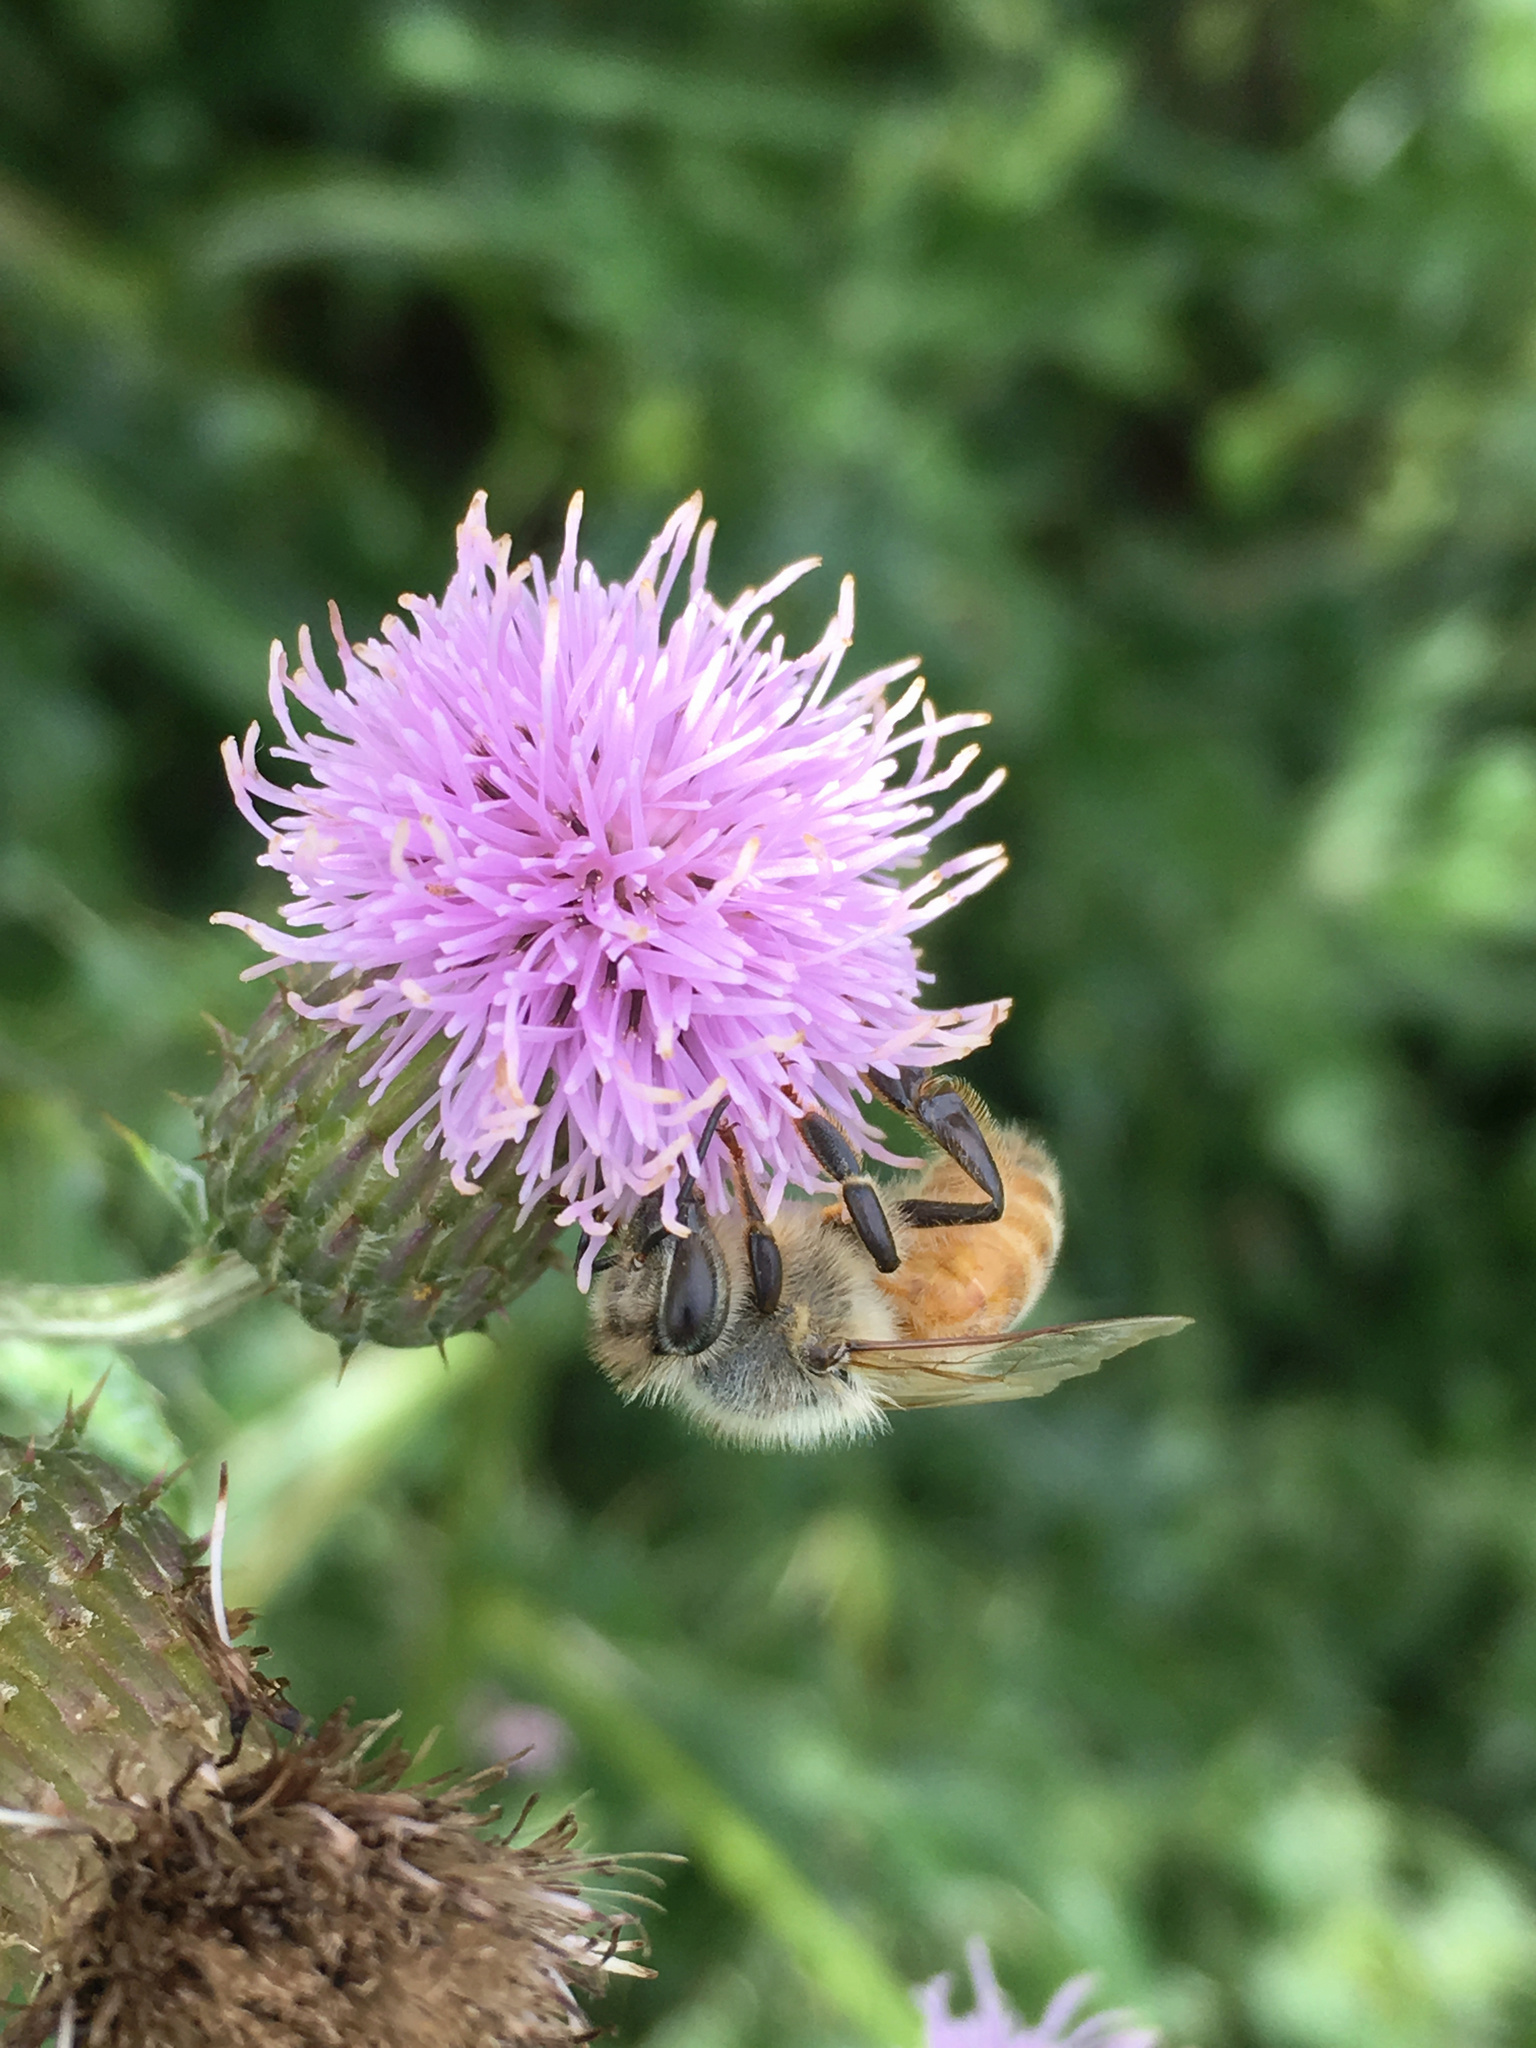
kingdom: Animalia
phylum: Arthropoda
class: Insecta
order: Hymenoptera
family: Apidae
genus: Apis
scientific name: Apis mellifera
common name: Honey bee
